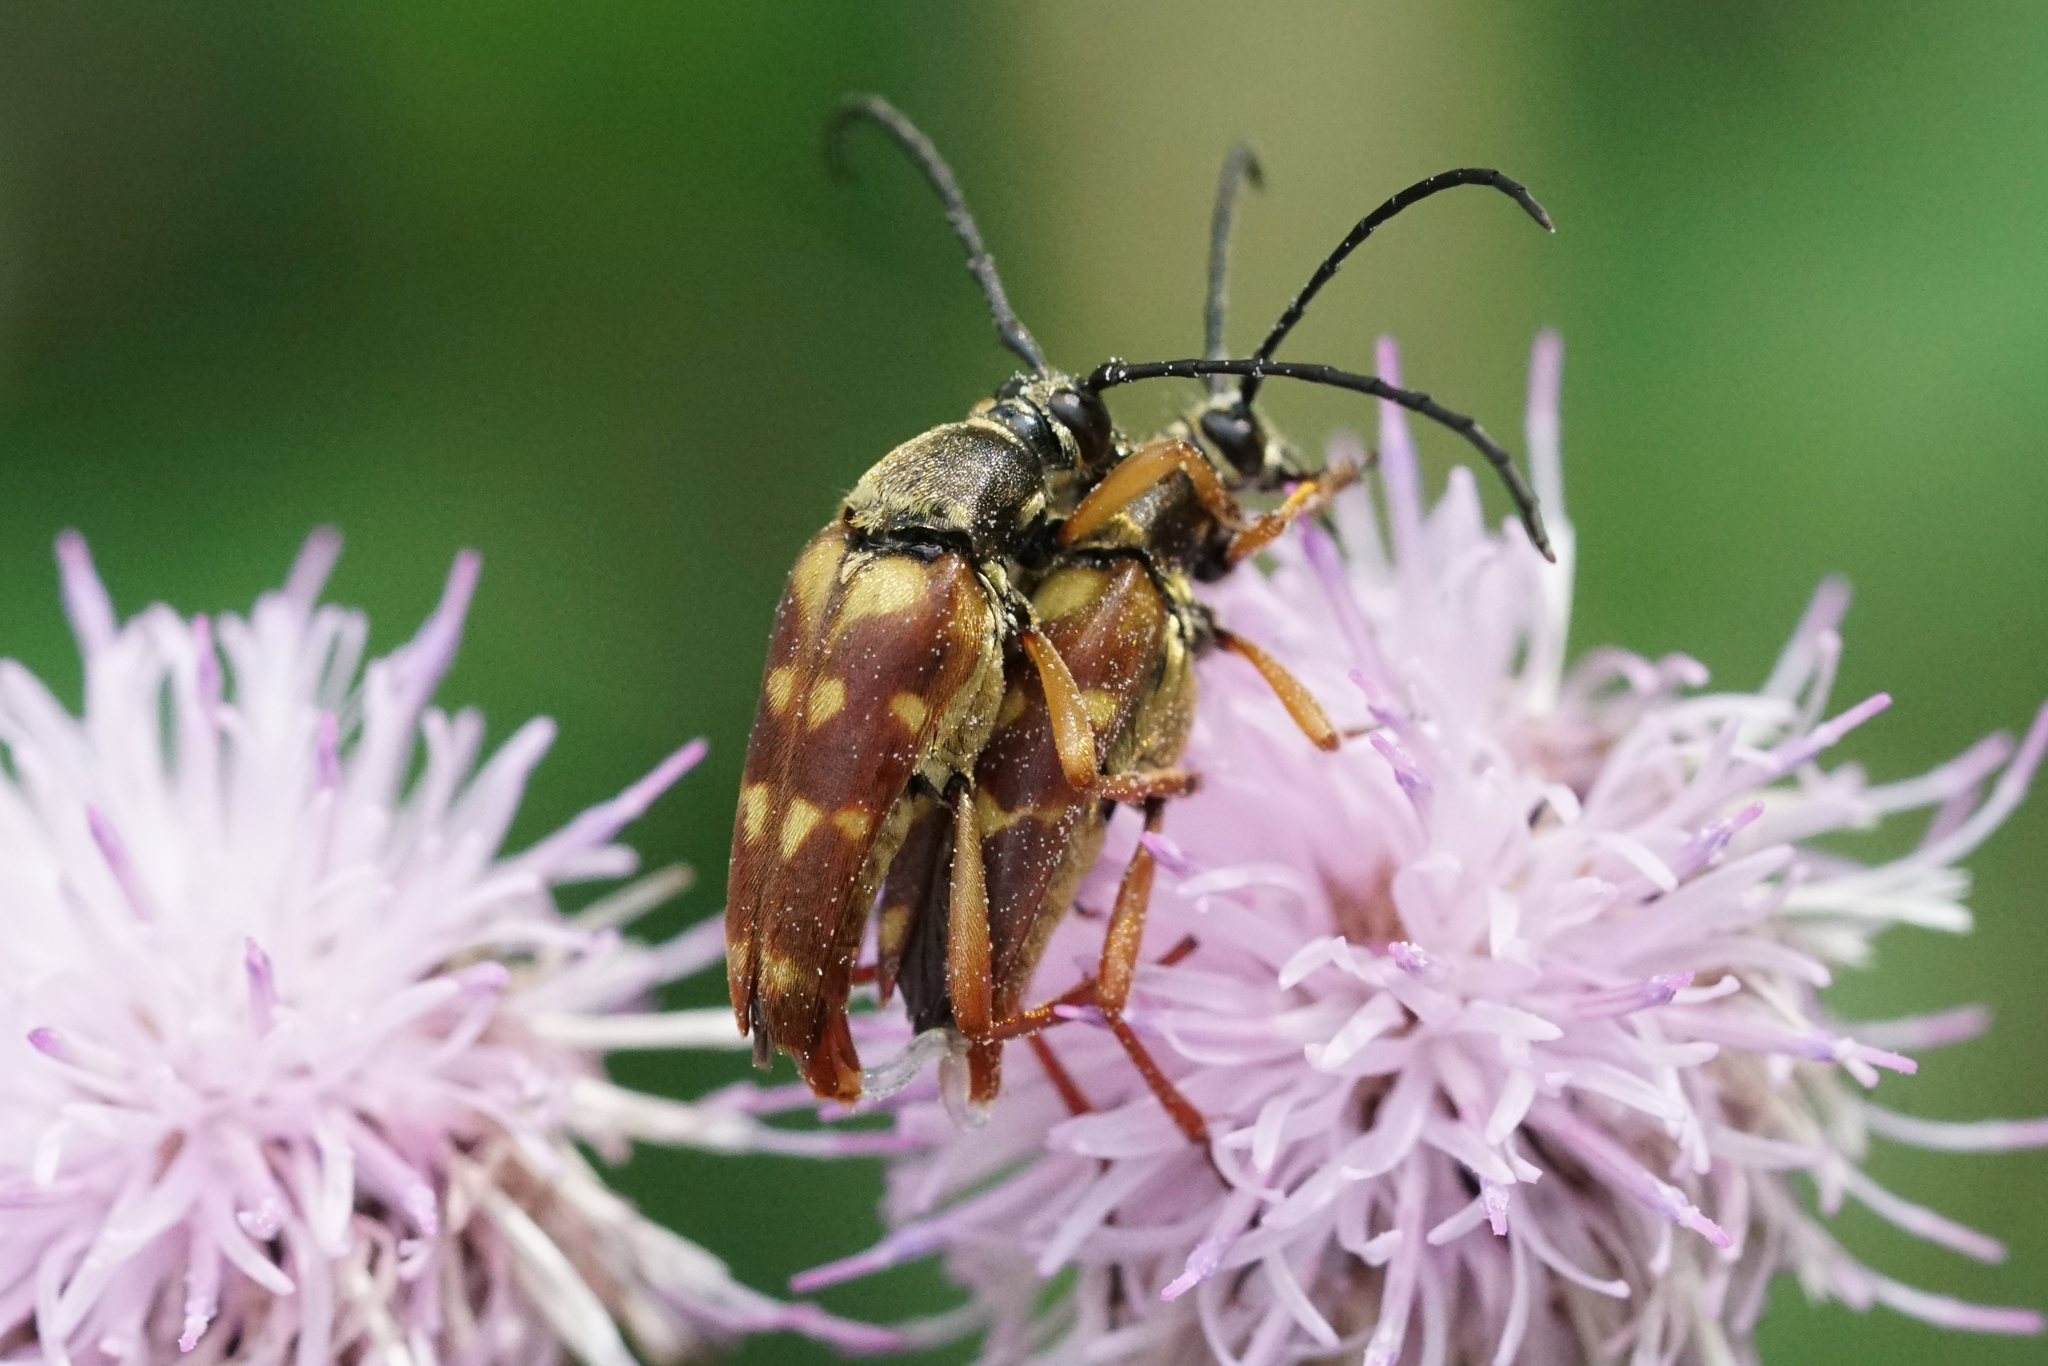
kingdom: Animalia
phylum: Arthropoda
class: Insecta
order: Coleoptera
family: Cerambycidae
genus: Typocerus
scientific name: Typocerus velutinus
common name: Banded longhorn beetle
